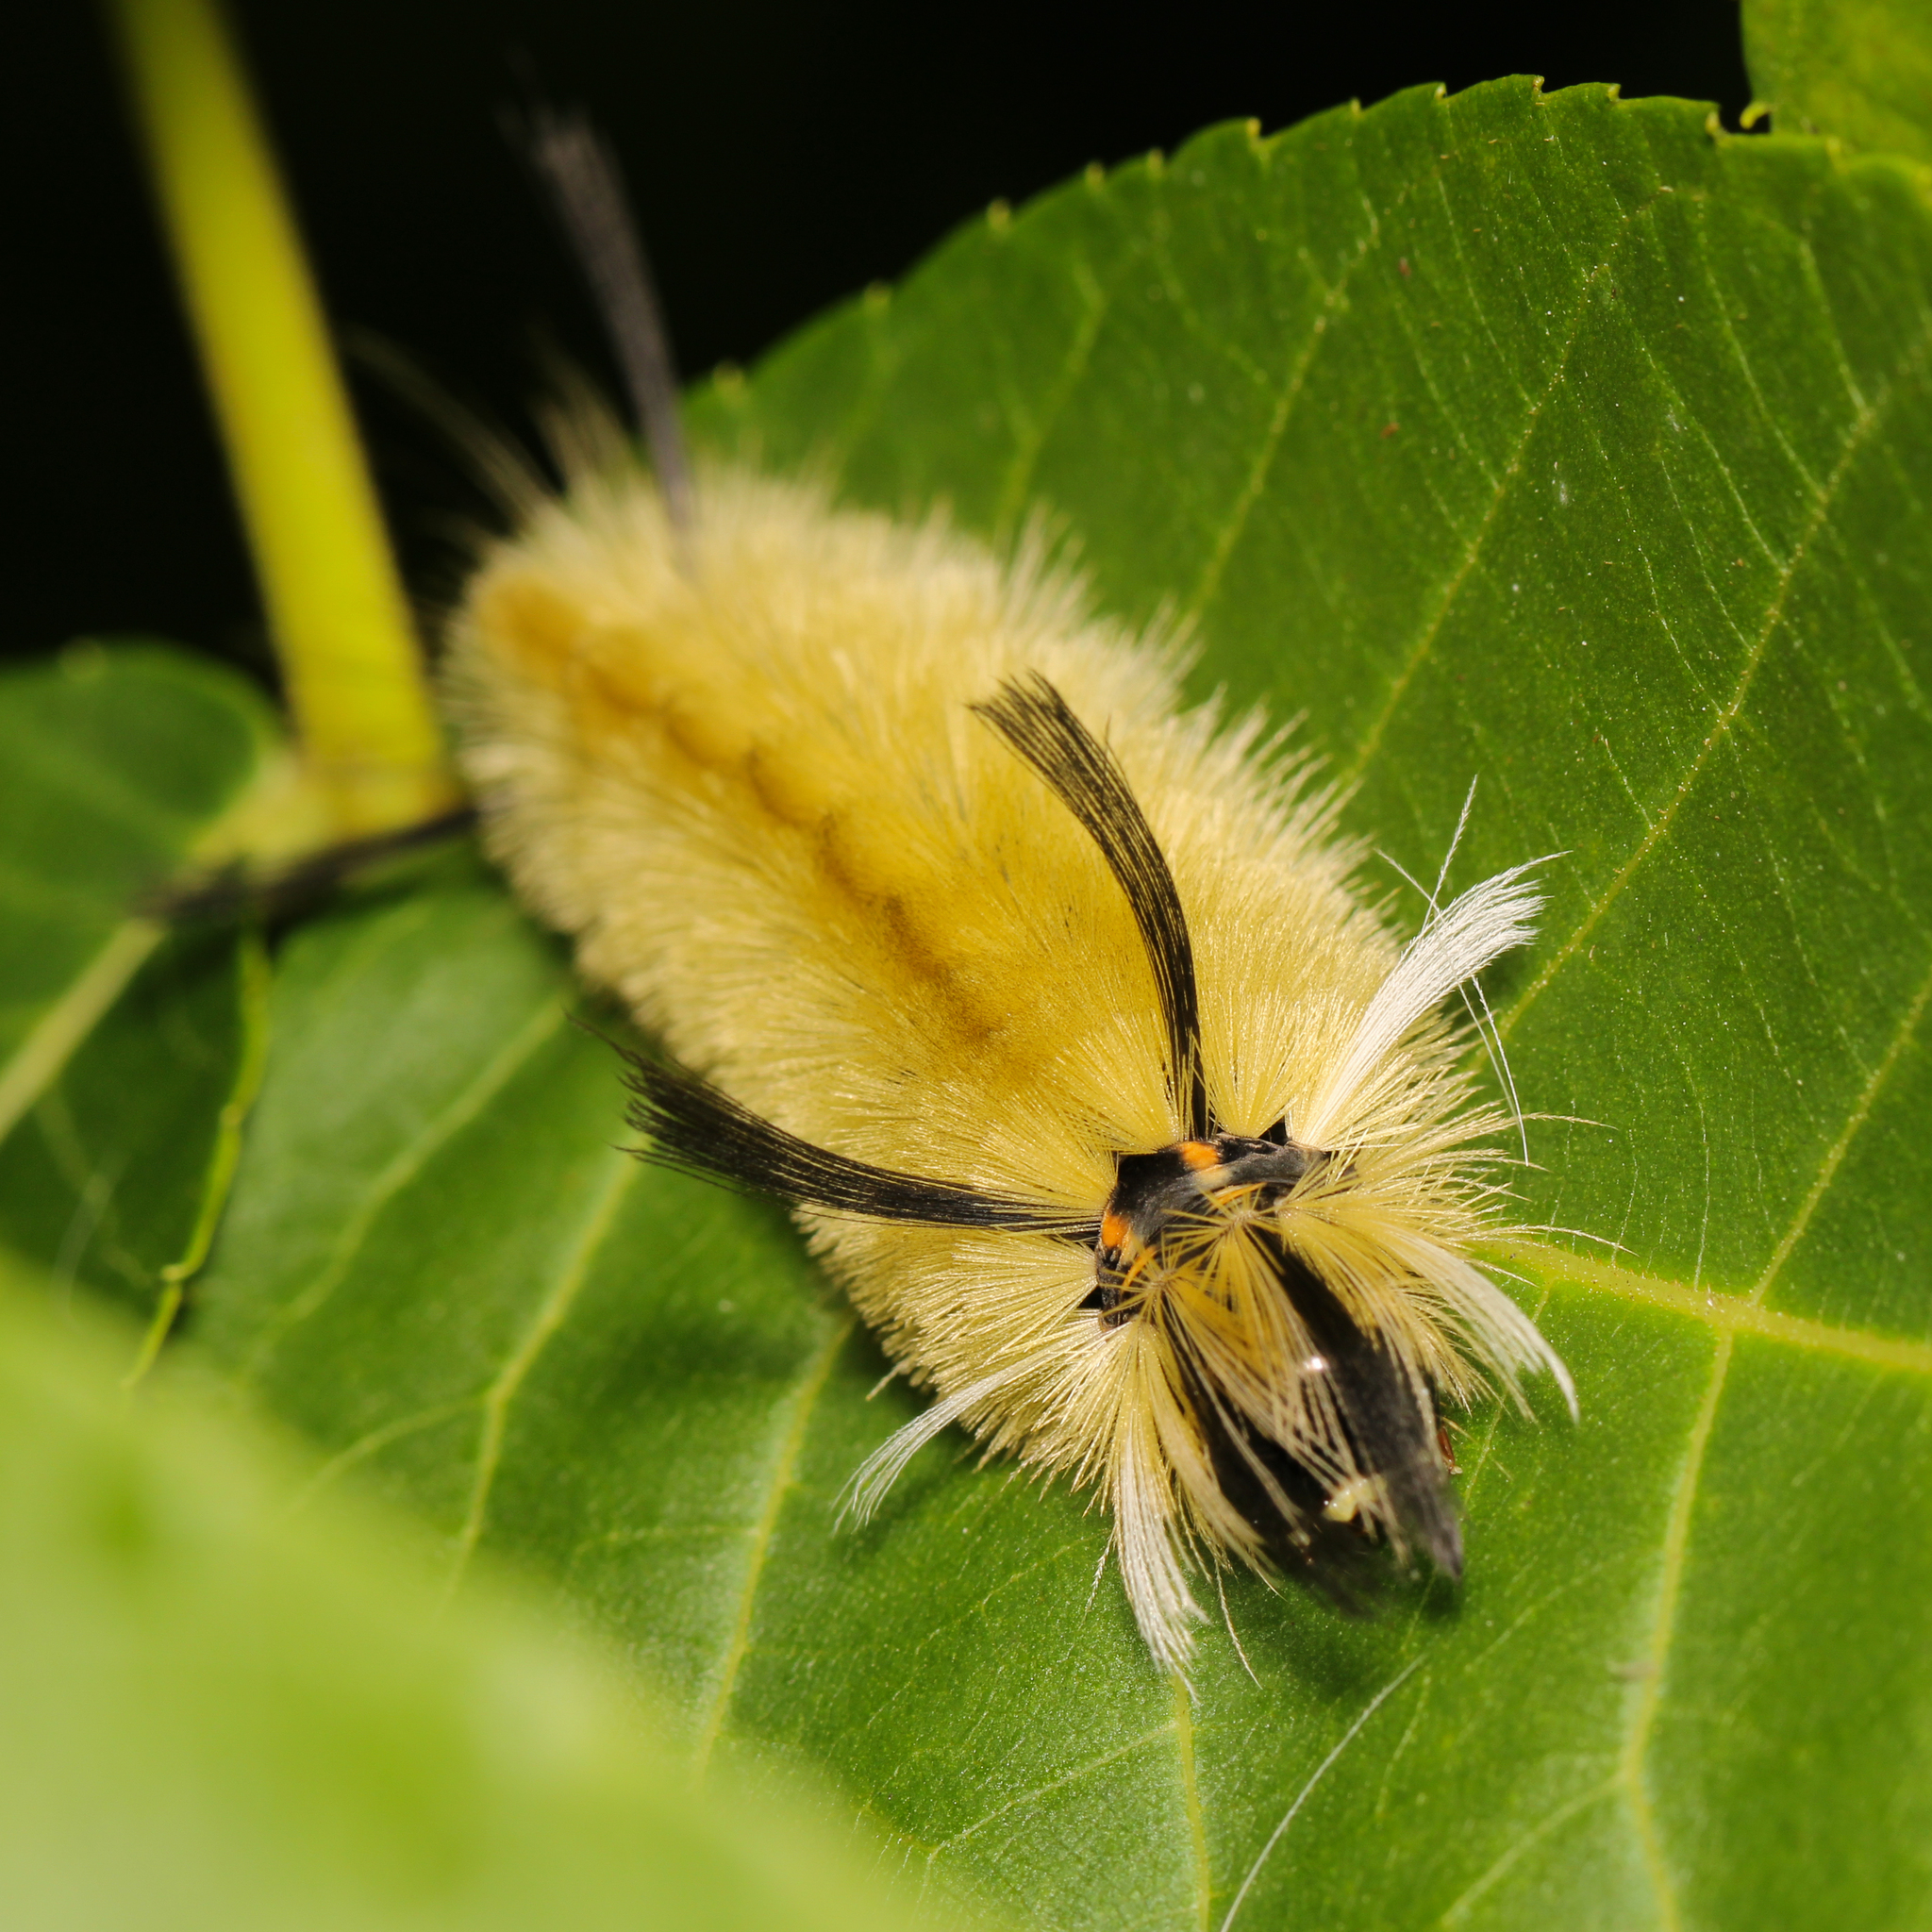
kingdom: Animalia
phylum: Arthropoda
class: Insecta
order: Lepidoptera
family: Erebidae
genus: Halysidota
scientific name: Halysidota tessellaris
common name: Banded tussock moth
